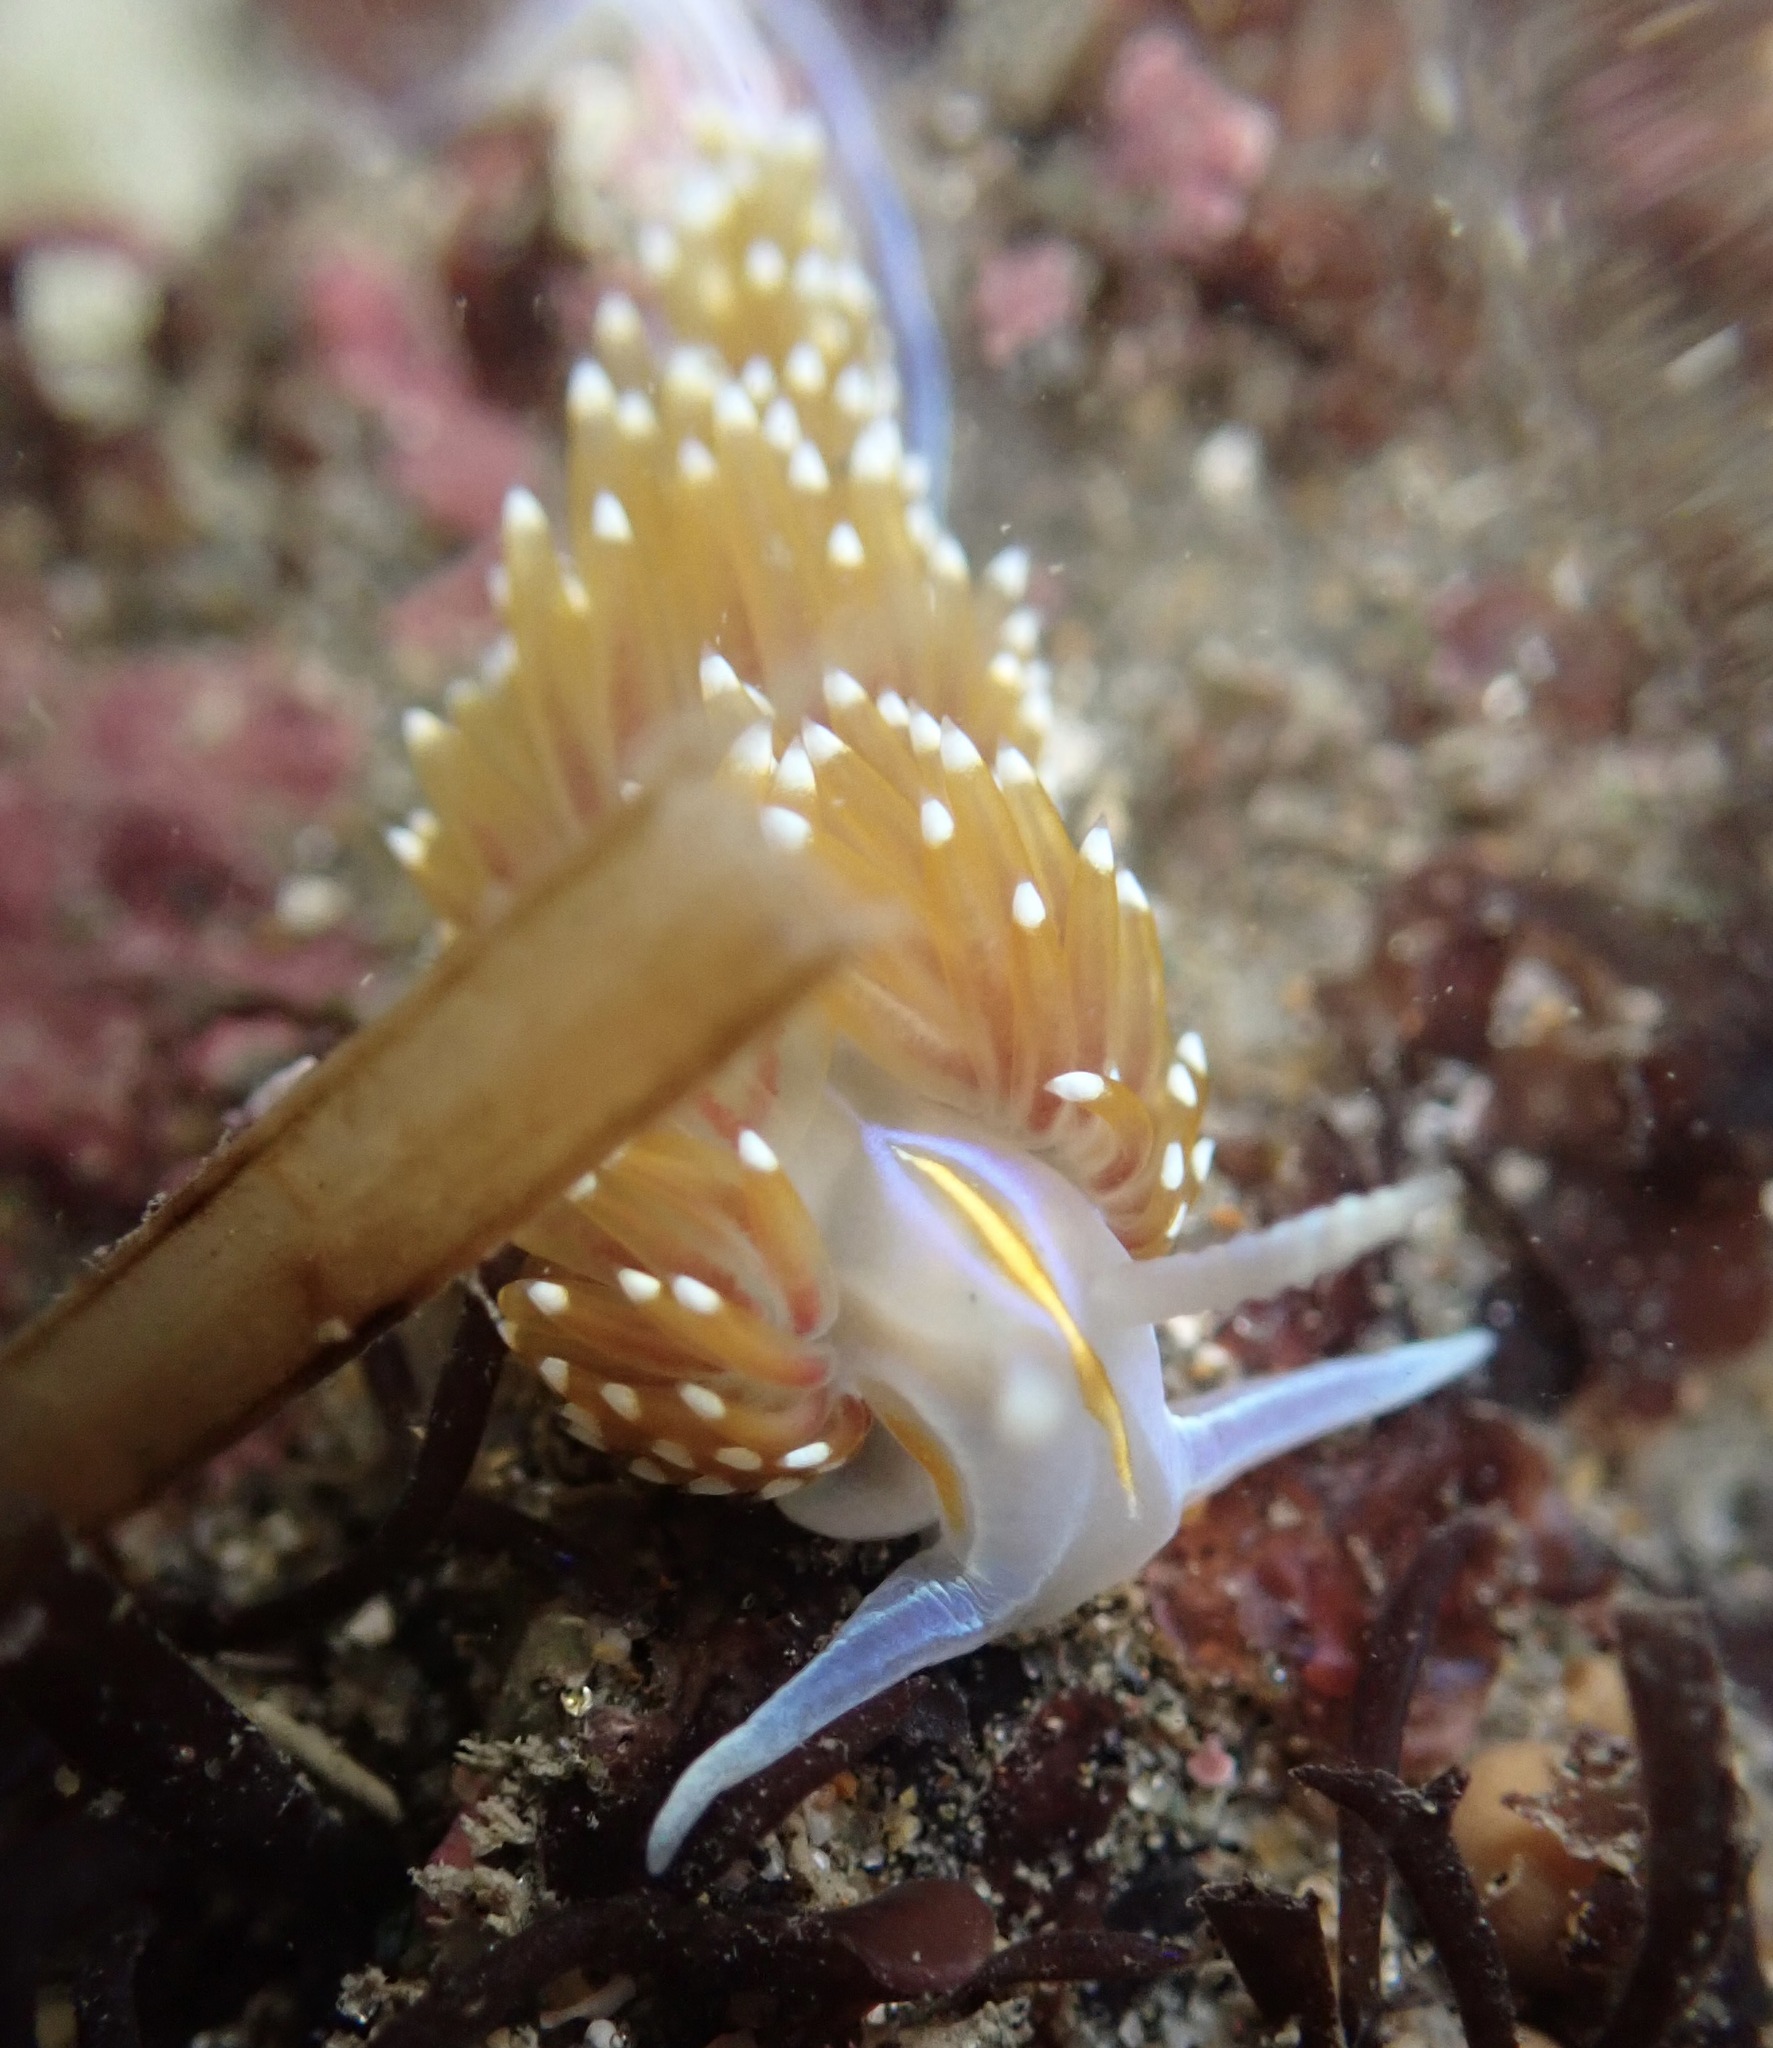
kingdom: Animalia
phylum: Mollusca
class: Gastropoda
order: Nudibranchia
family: Myrrhinidae
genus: Hermissenda
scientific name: Hermissenda opalescens
